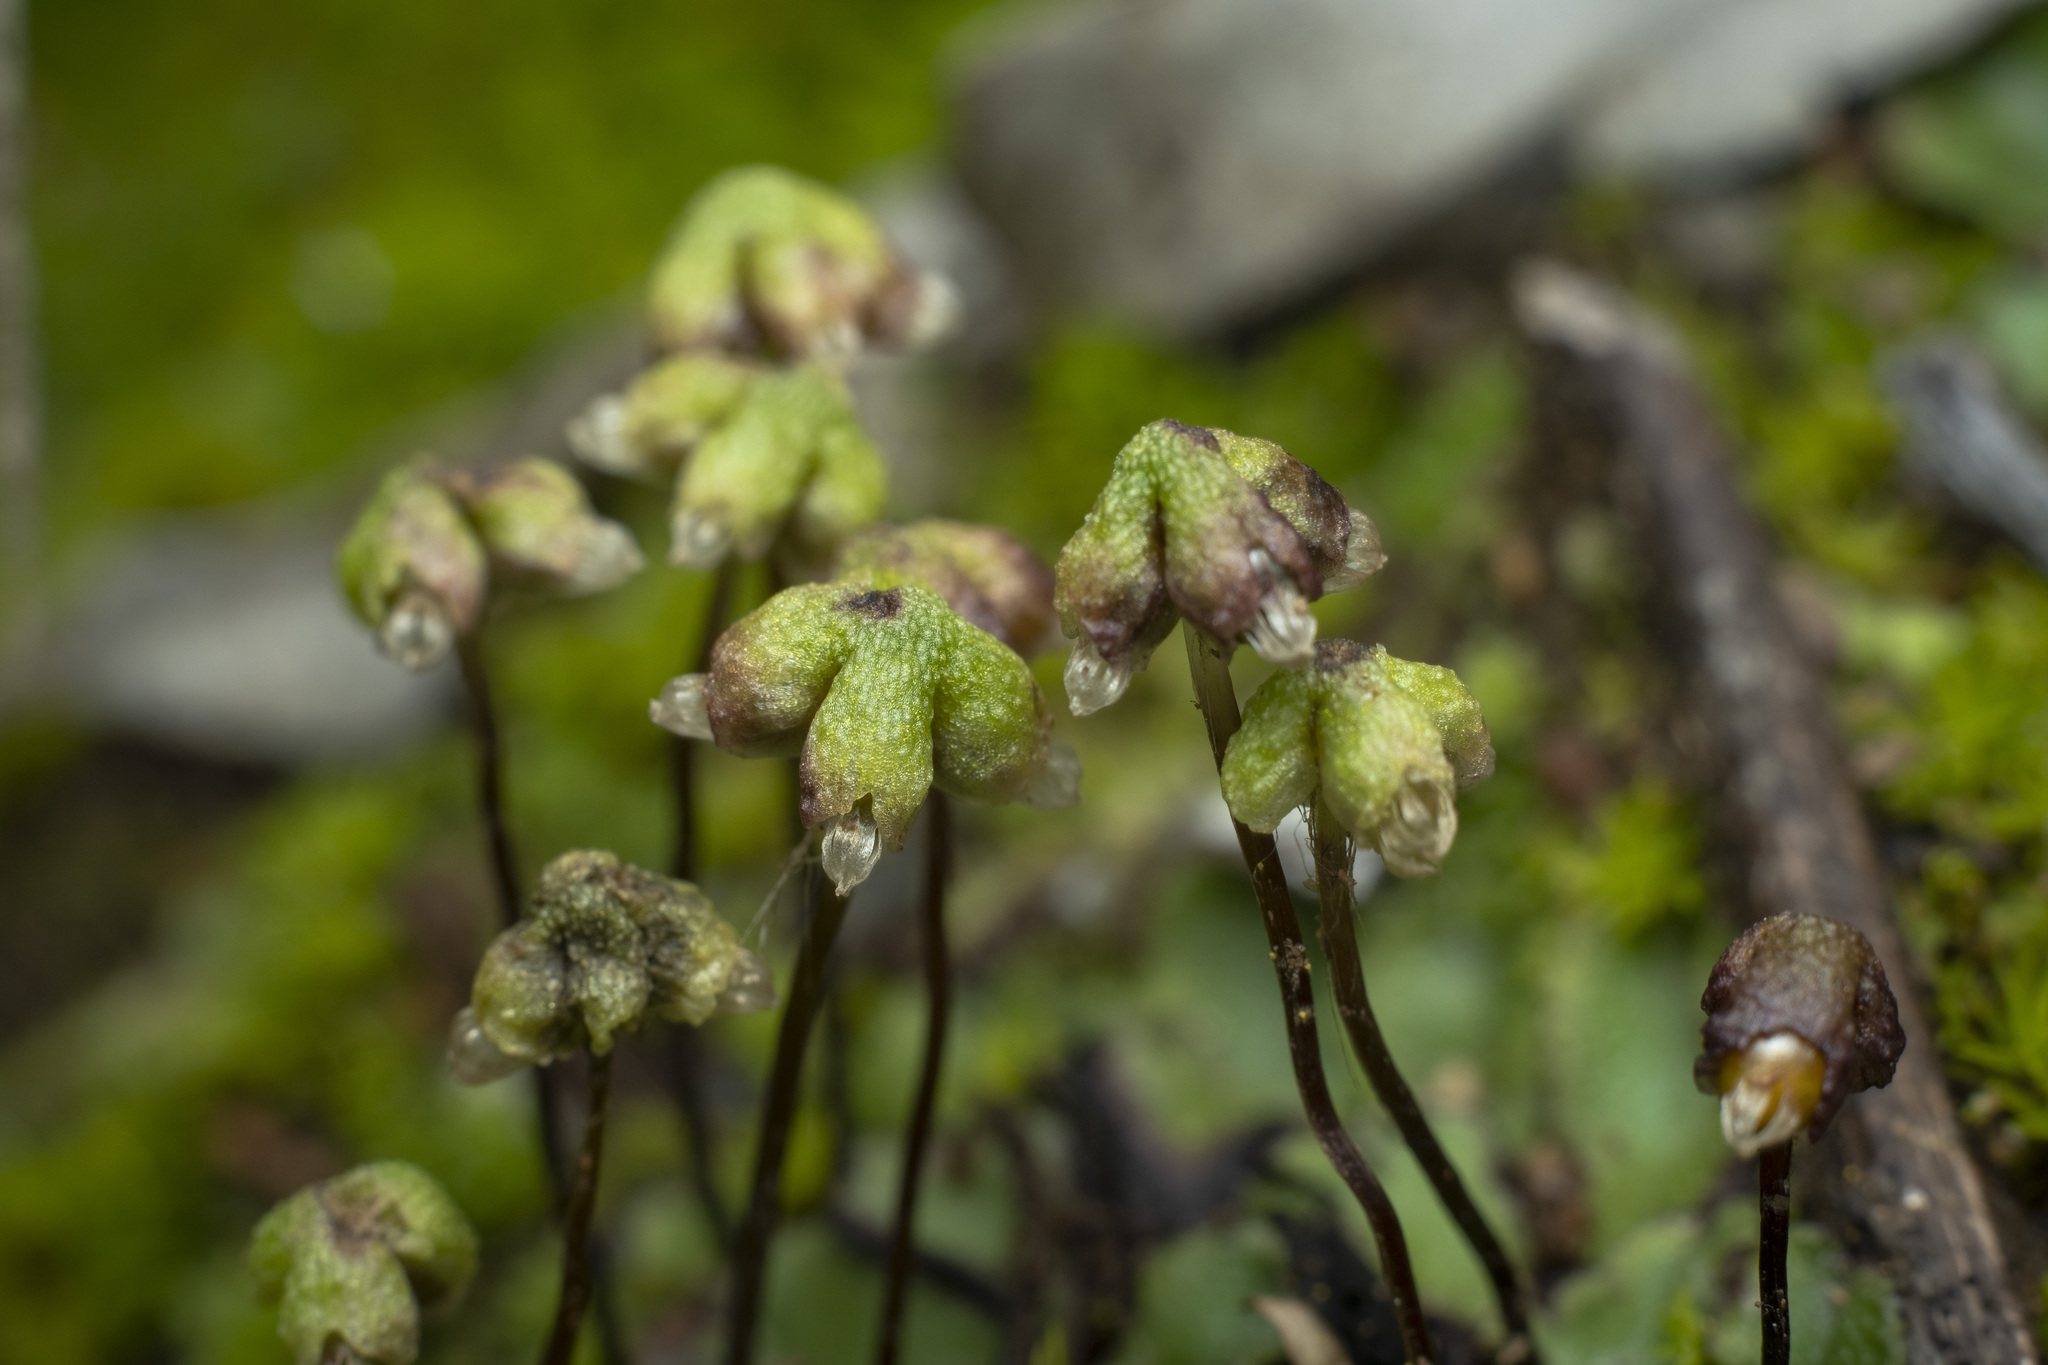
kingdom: Plantae
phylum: Marchantiophyta
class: Marchantiopsida
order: Marchantiales
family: Aytoniaceae
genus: Asterella
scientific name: Asterella californica
